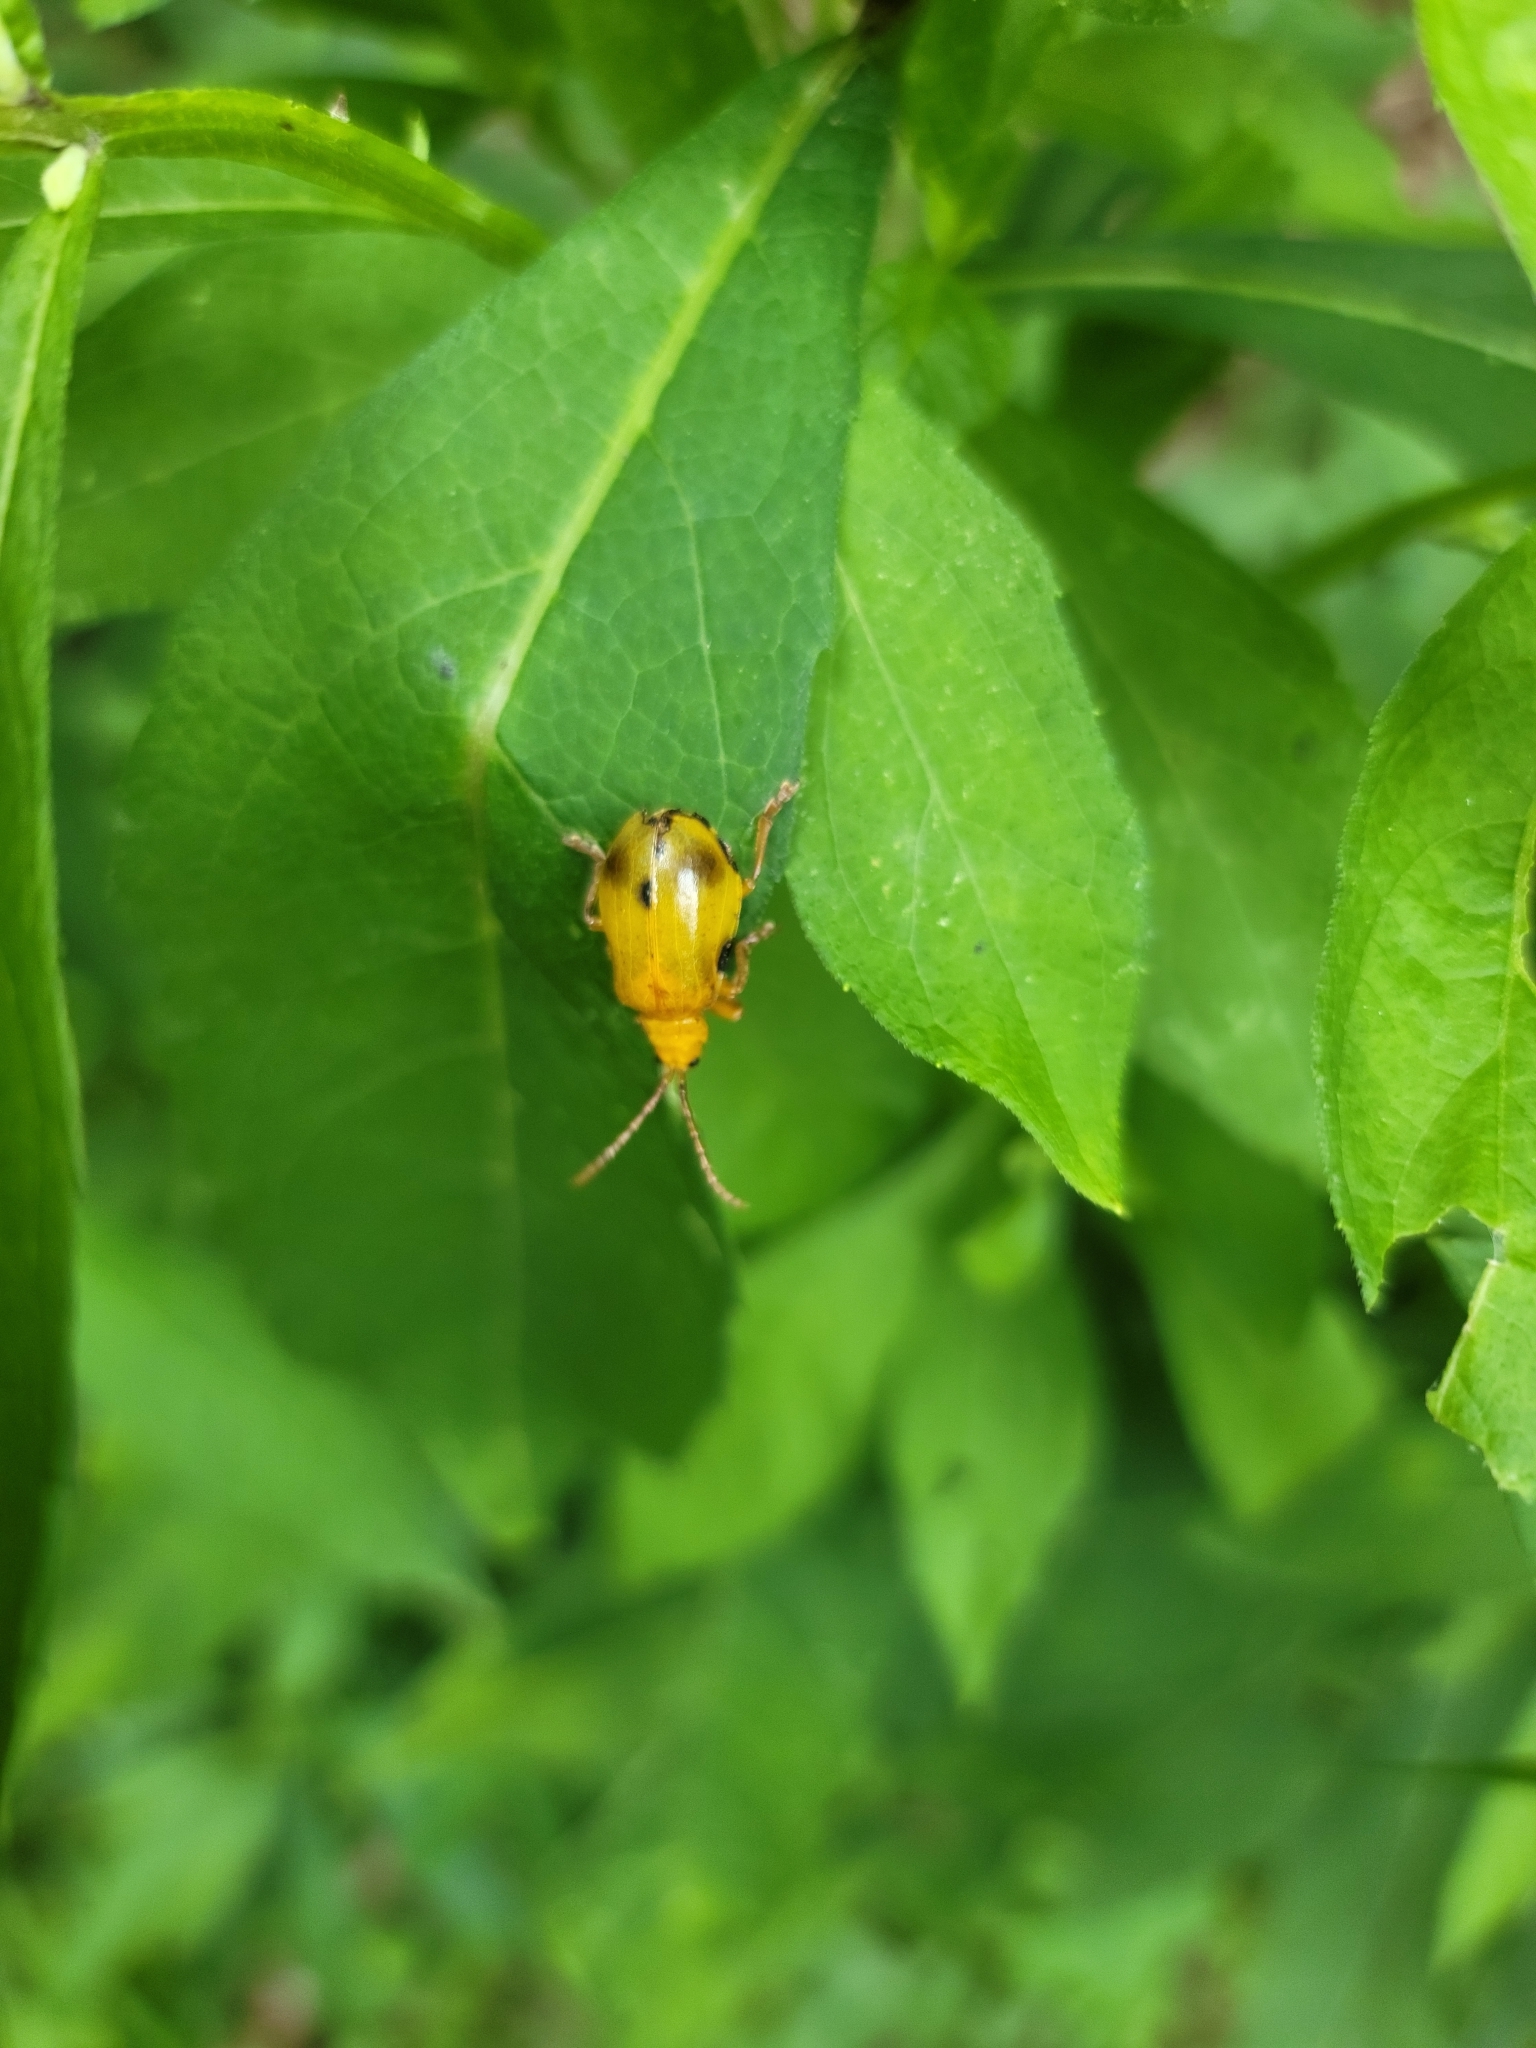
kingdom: Animalia
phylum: Arthropoda
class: Insecta
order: Coleoptera
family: Chrysomelidae
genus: Monocesta
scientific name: Monocesta coryli
